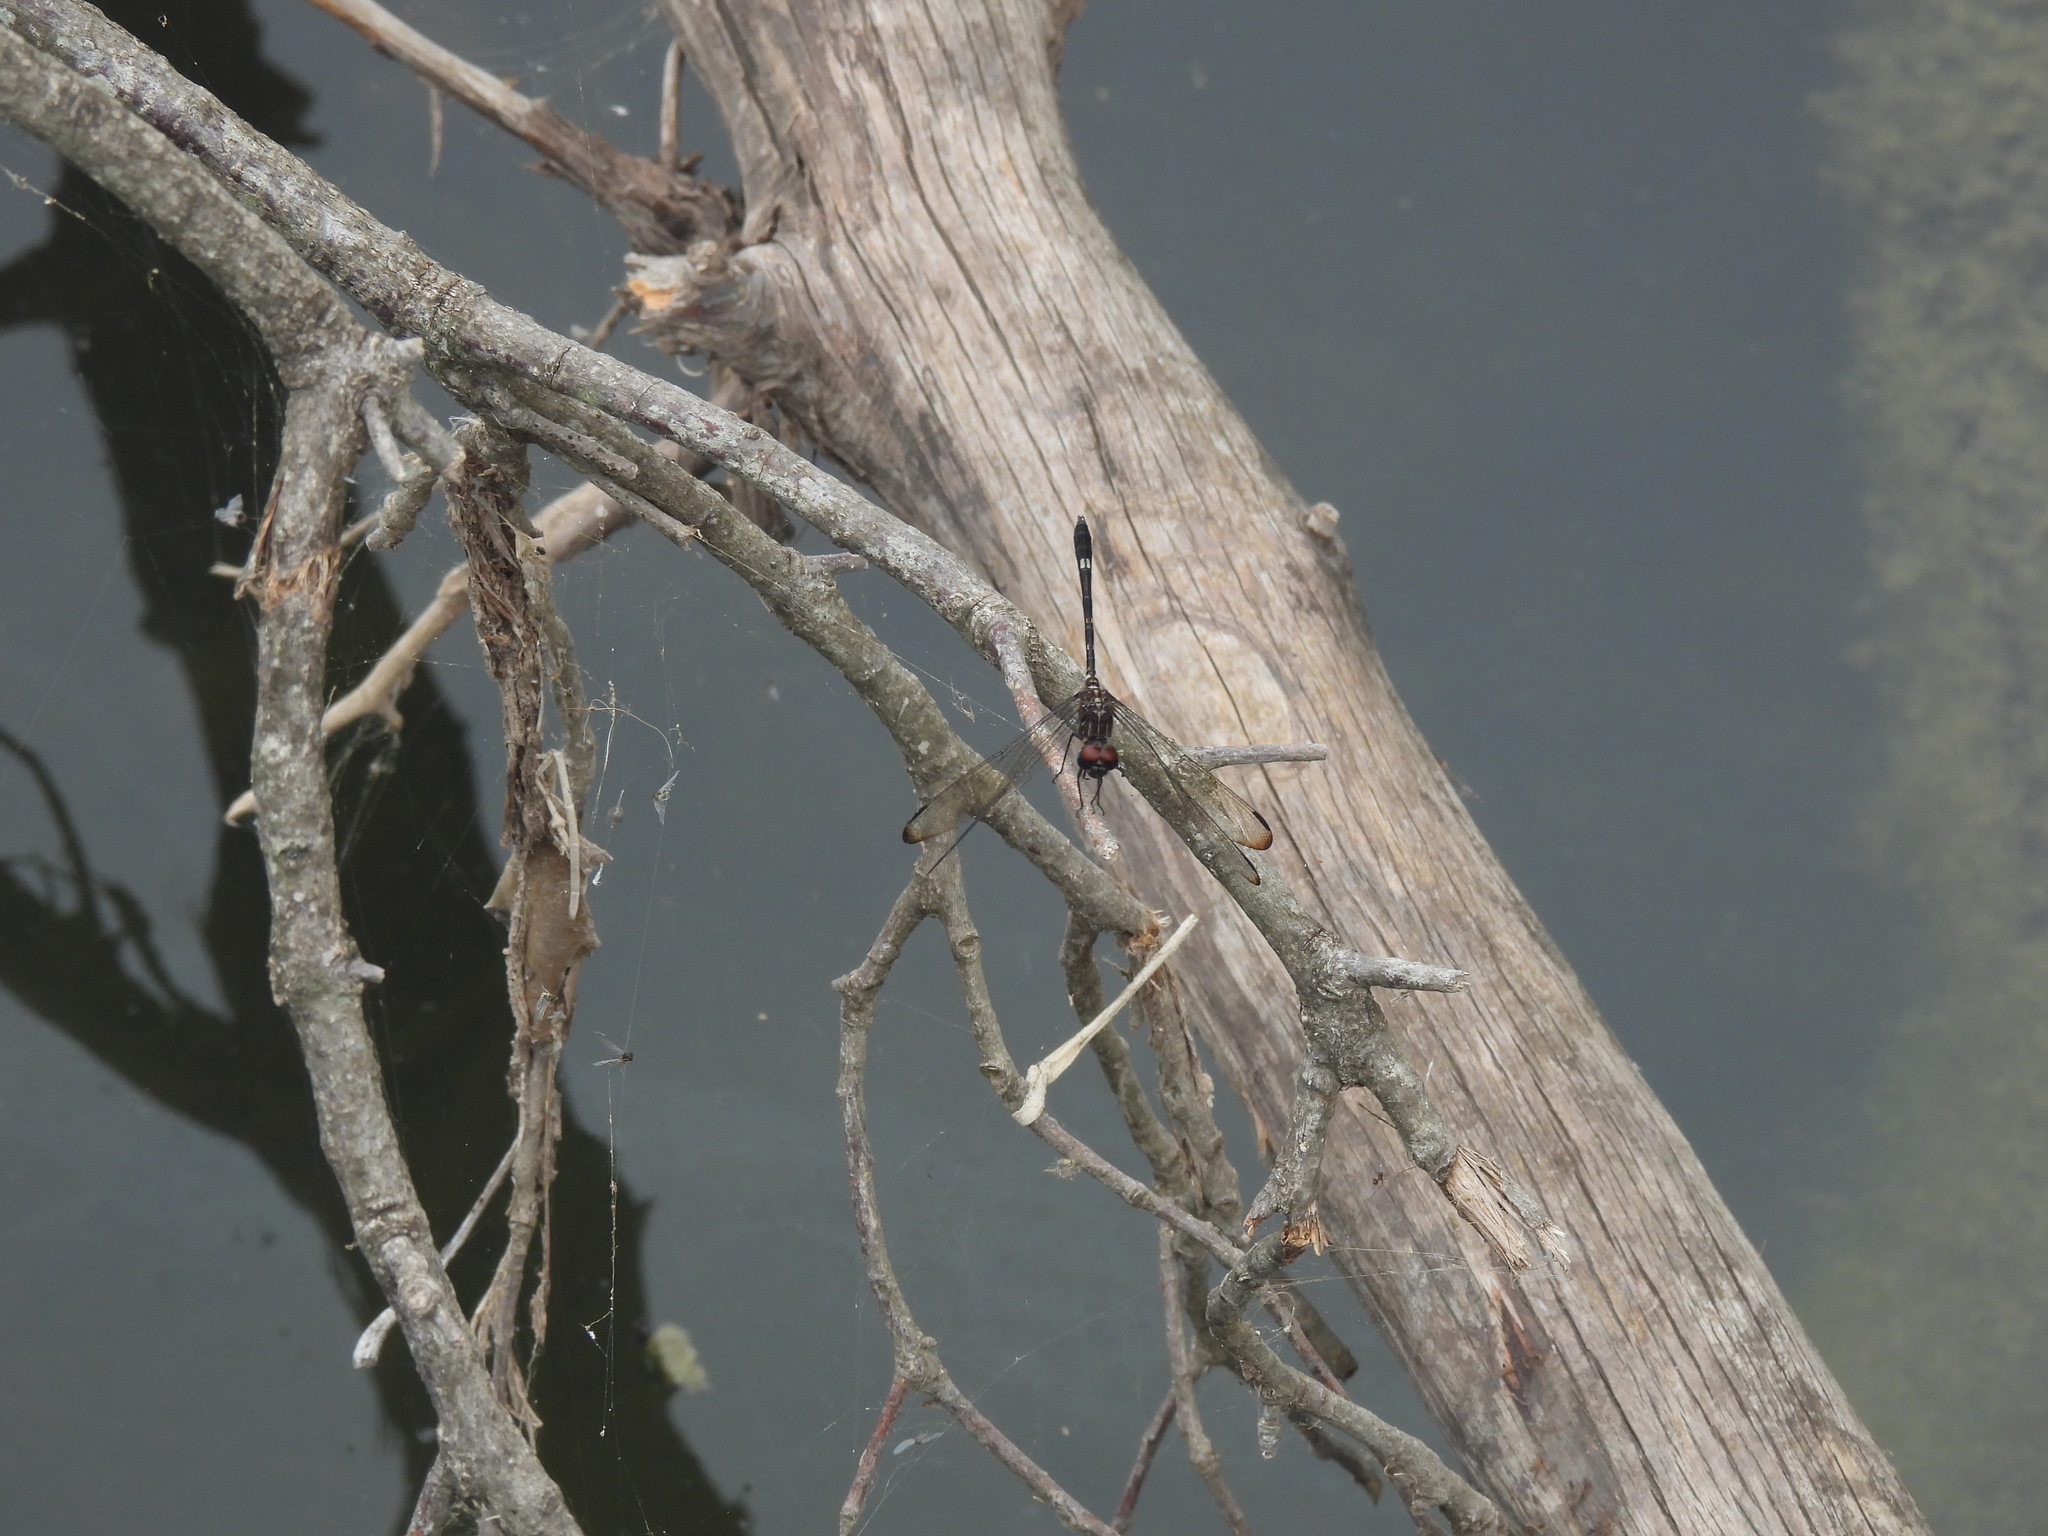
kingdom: Animalia
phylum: Arthropoda
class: Insecta
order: Odonata
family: Libellulidae
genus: Dythemis
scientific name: Dythemis velox
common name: Swift setwing
